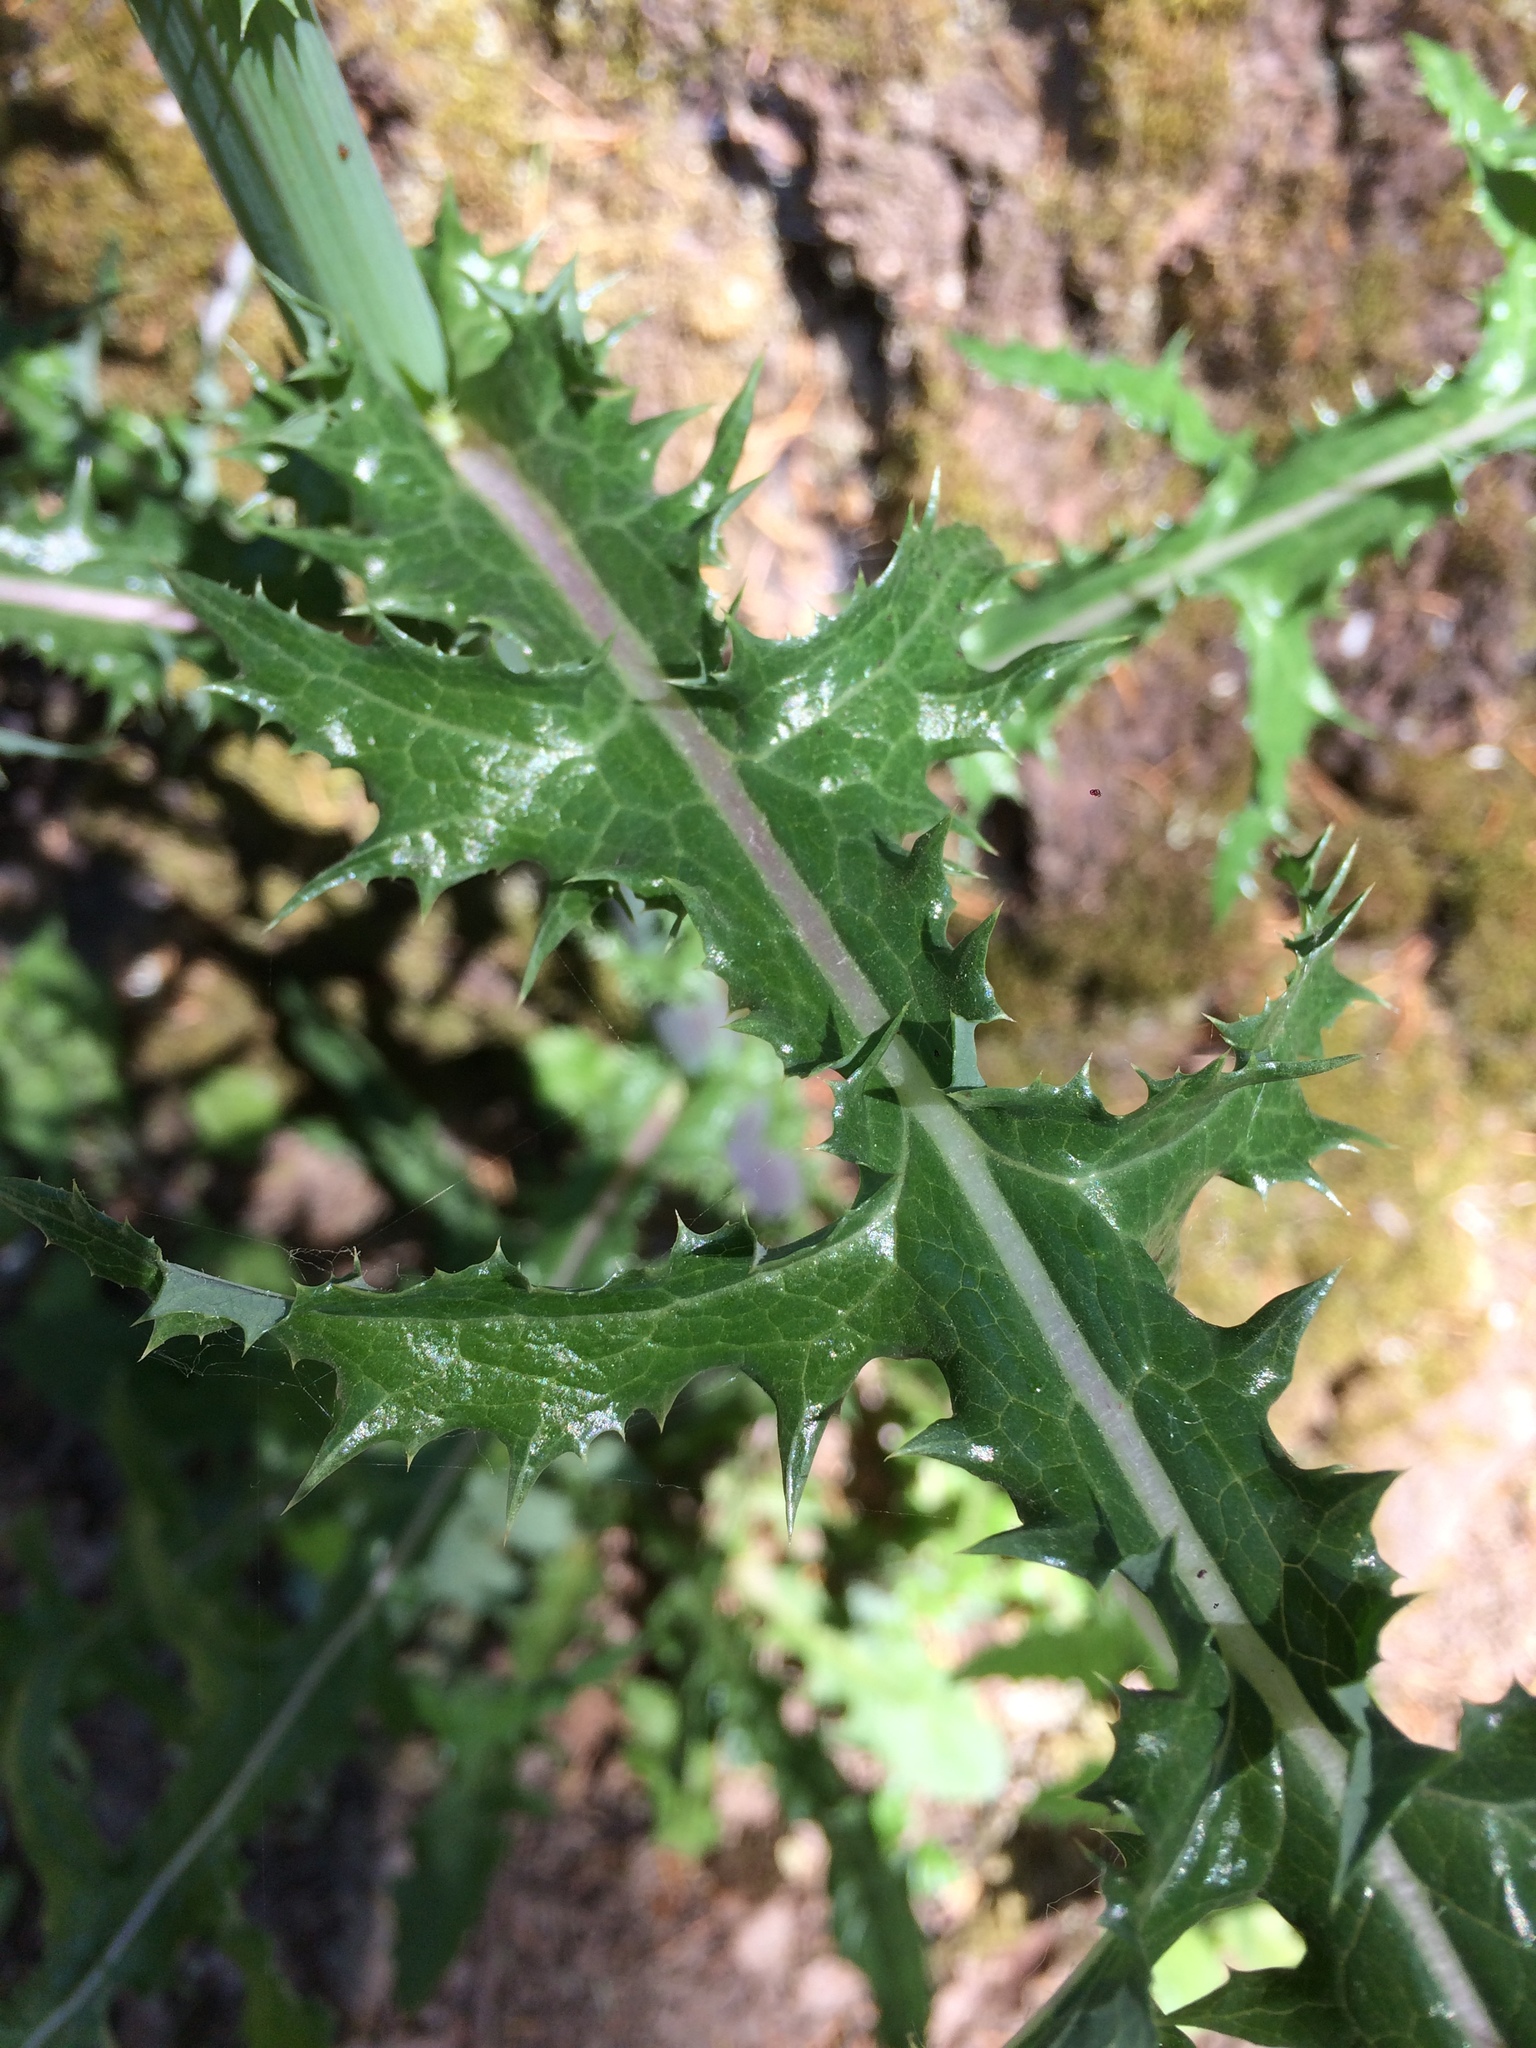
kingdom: Plantae
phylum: Tracheophyta
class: Magnoliopsida
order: Asterales
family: Asteraceae
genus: Sonchus
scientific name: Sonchus asper
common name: Prickly sow-thistle
